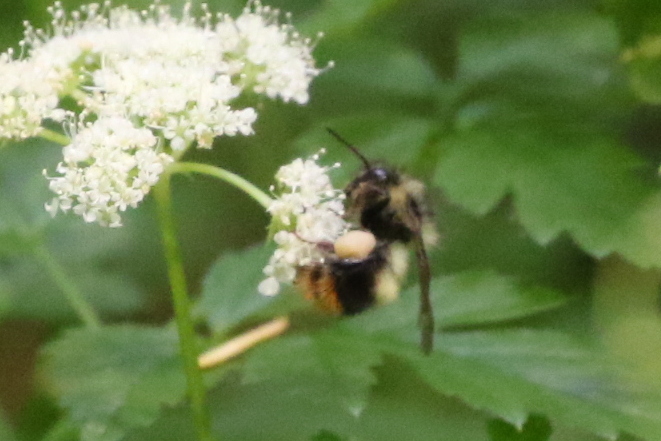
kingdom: Animalia
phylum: Arthropoda
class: Insecta
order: Hymenoptera
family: Apidae
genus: Bombus
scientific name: Bombus mixtus
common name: Fuzzy-horned bumble bee
